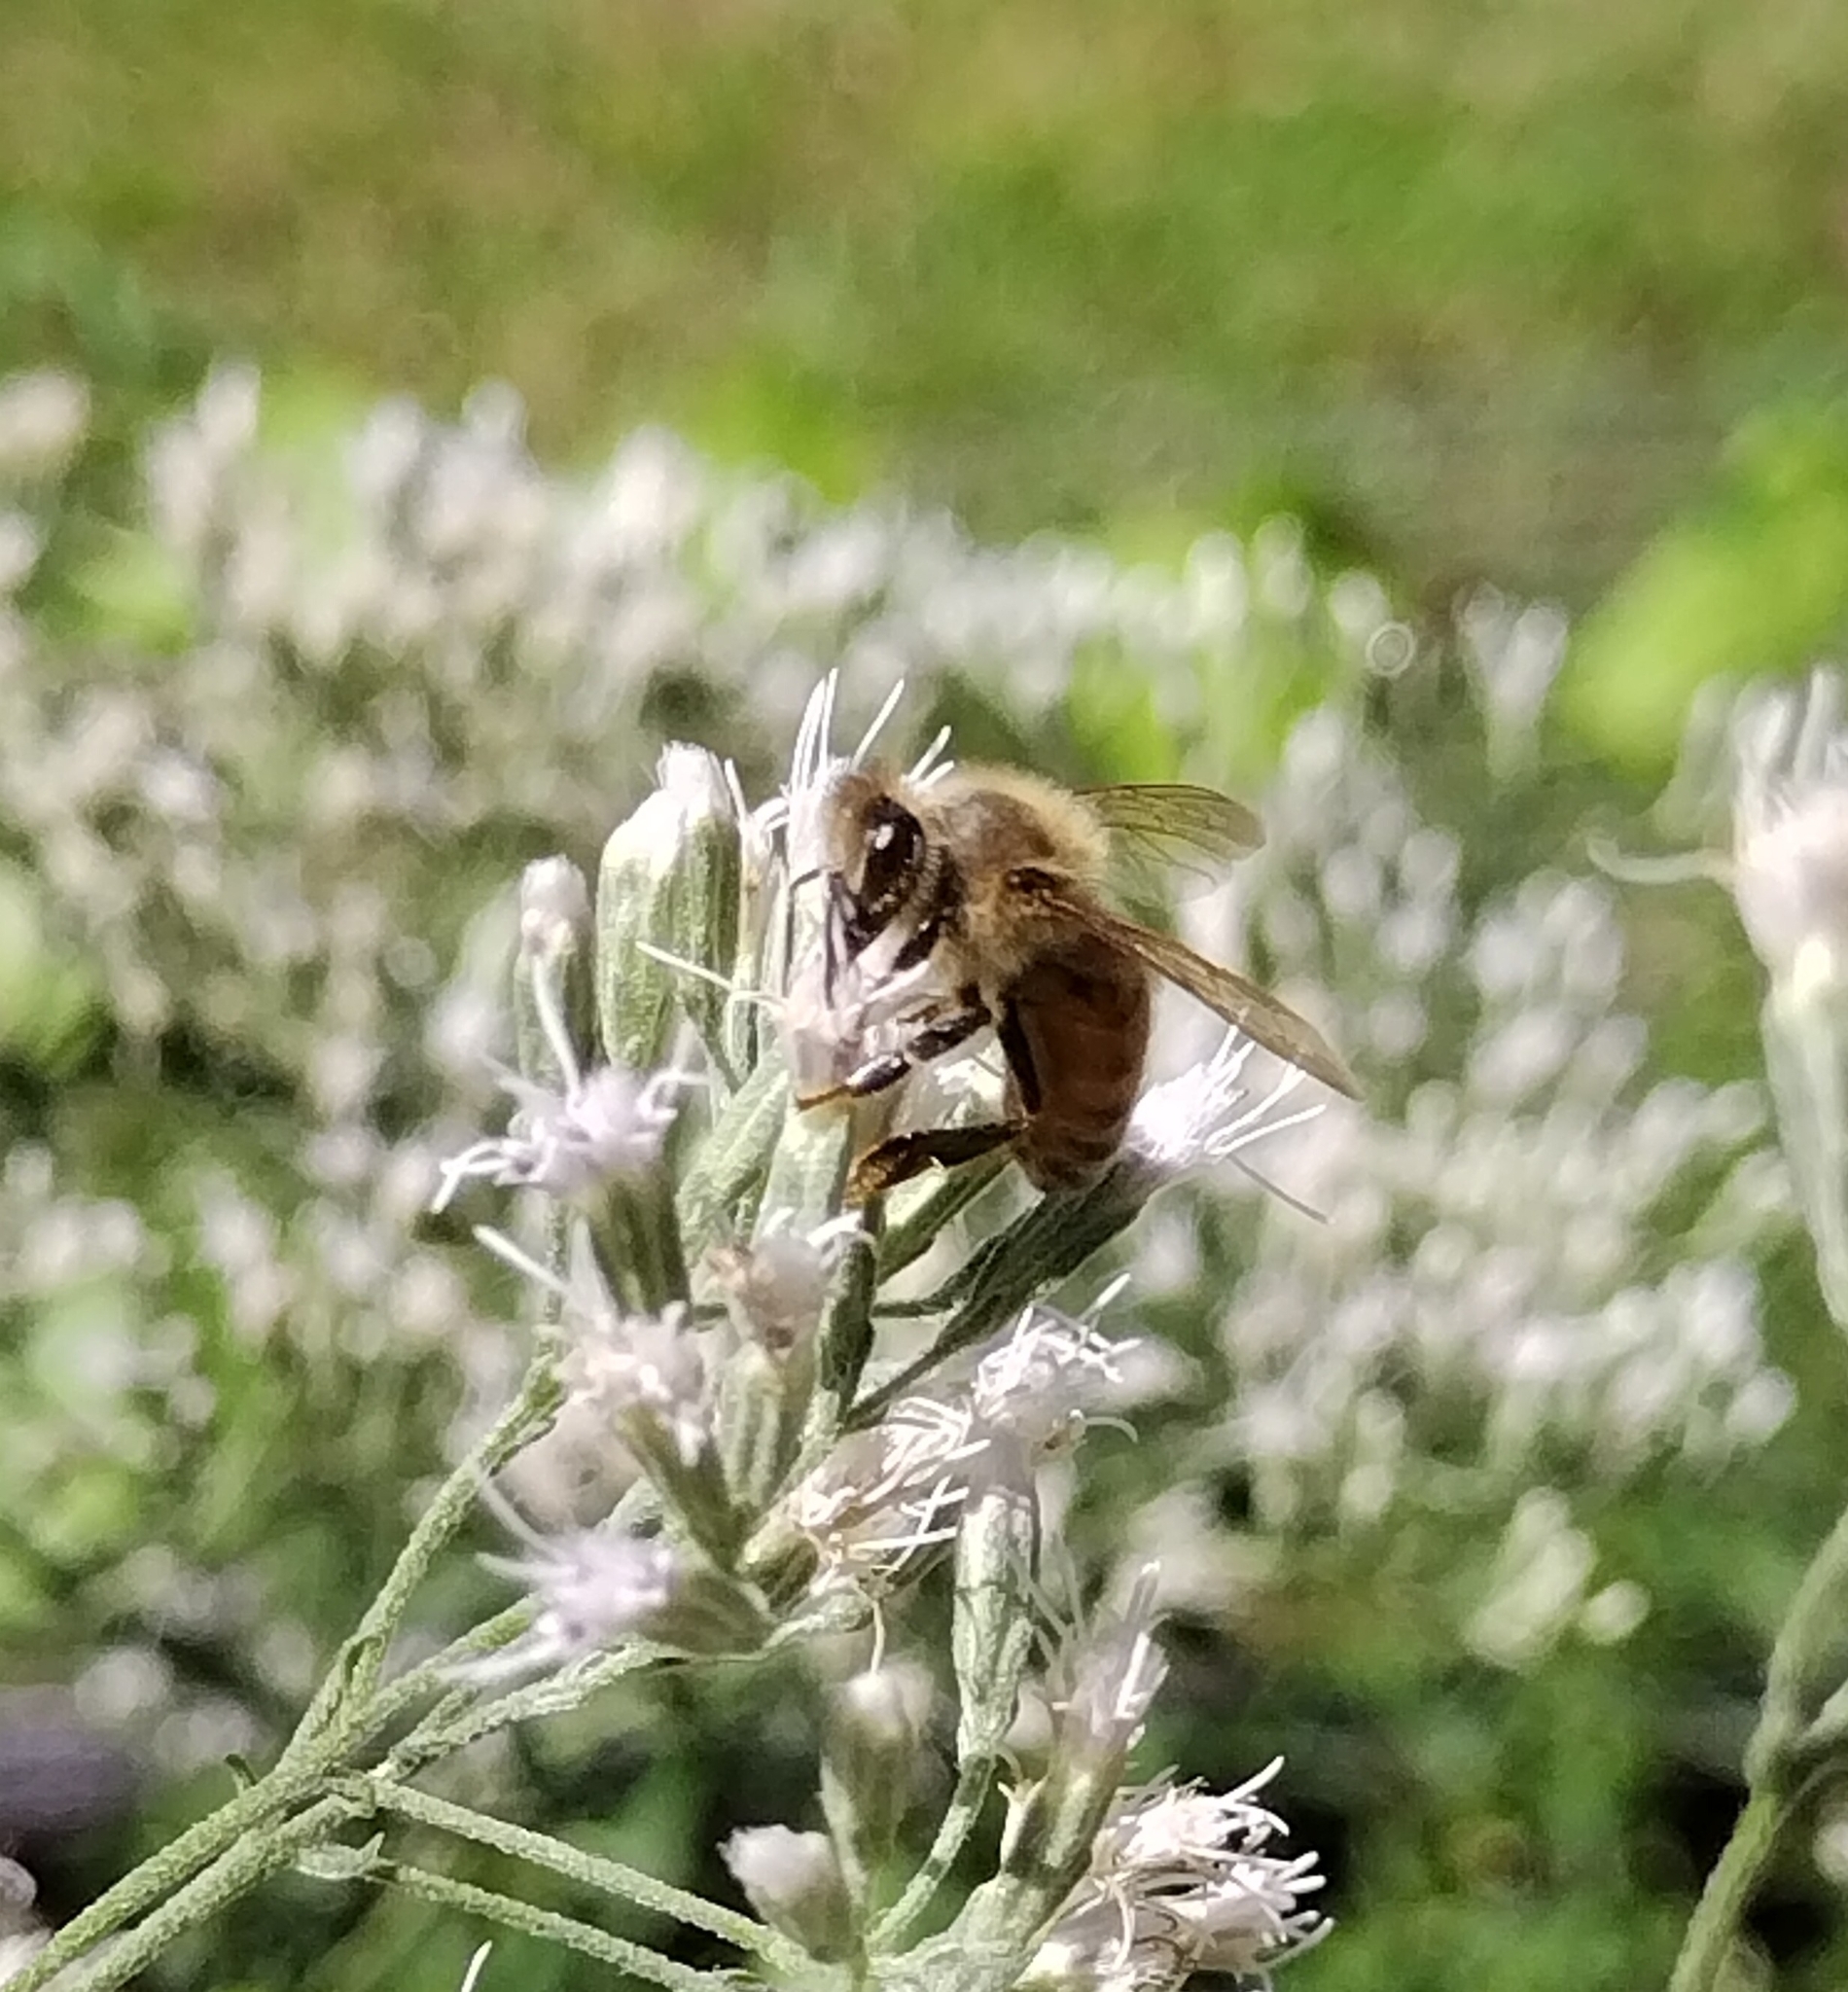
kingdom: Animalia
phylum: Arthropoda
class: Insecta
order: Hymenoptera
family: Apidae
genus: Apis
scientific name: Apis mellifera
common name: Honey bee
